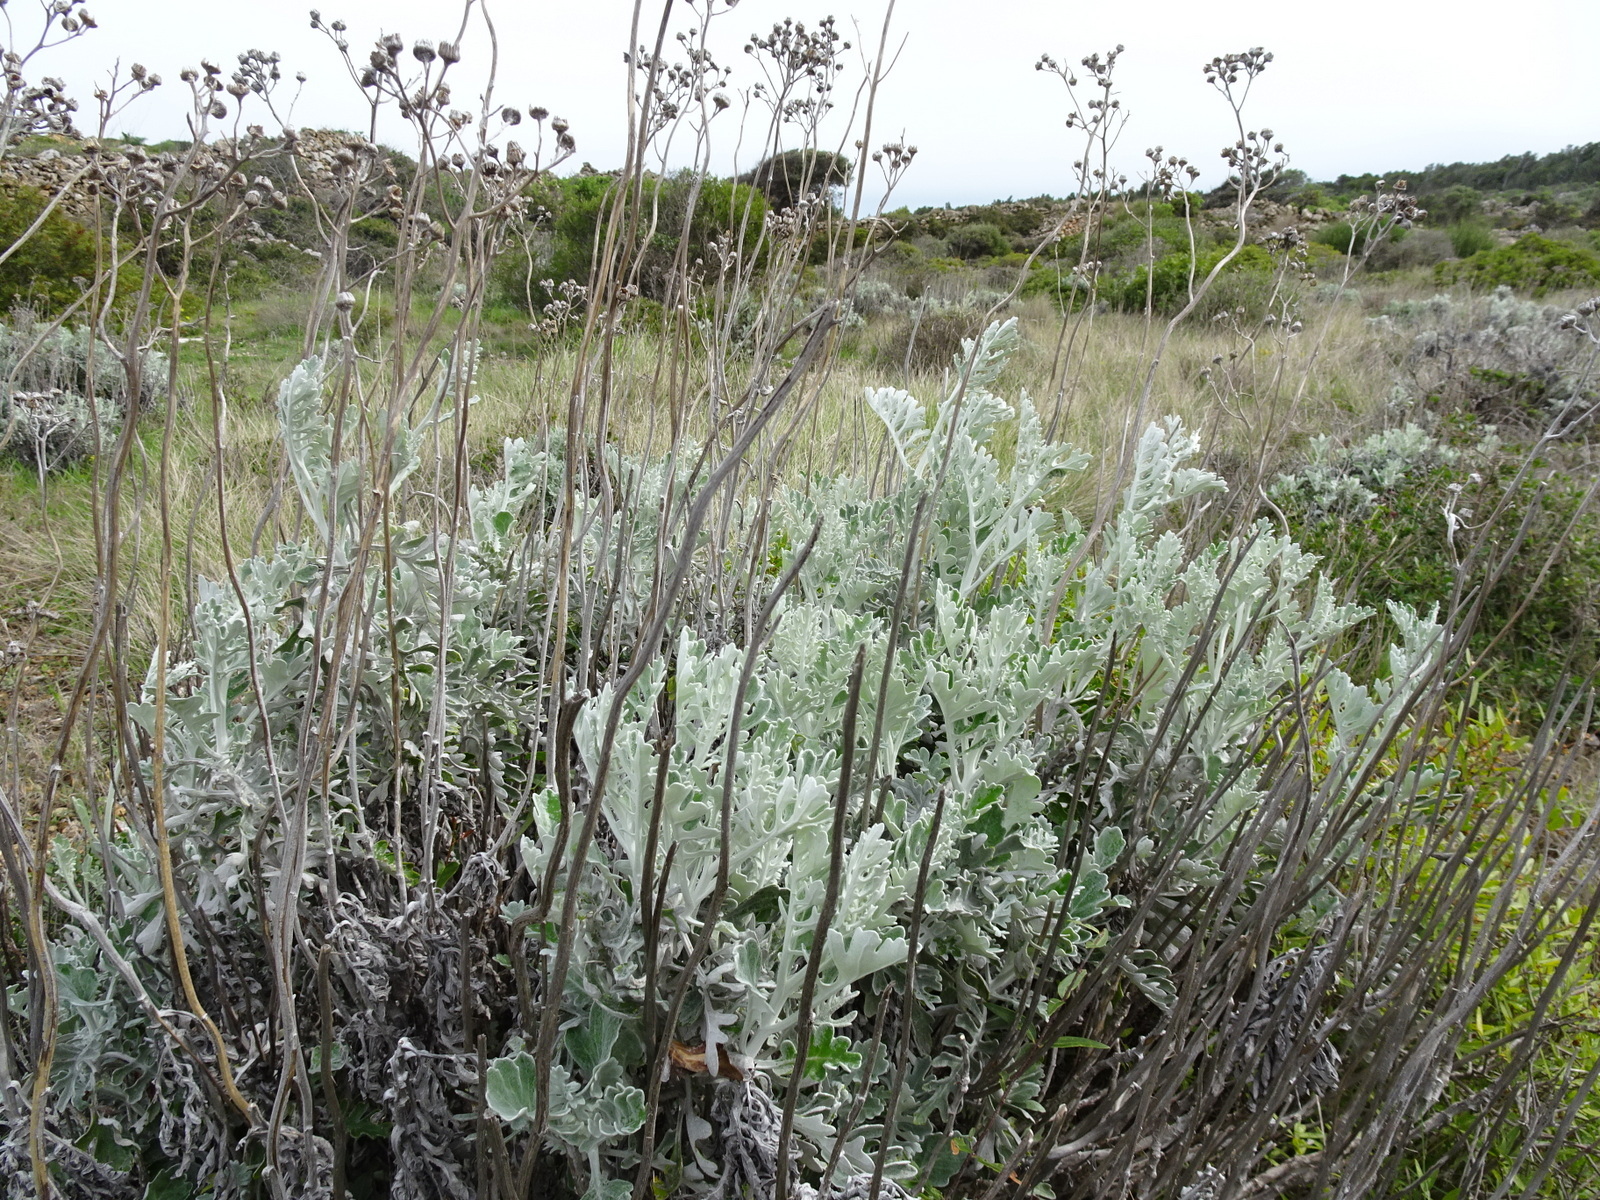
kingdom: Plantae
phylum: Tracheophyta
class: Magnoliopsida
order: Asterales
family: Asteraceae
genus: Jacobaea
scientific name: Jacobaea maritima
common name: Silver ragwort
